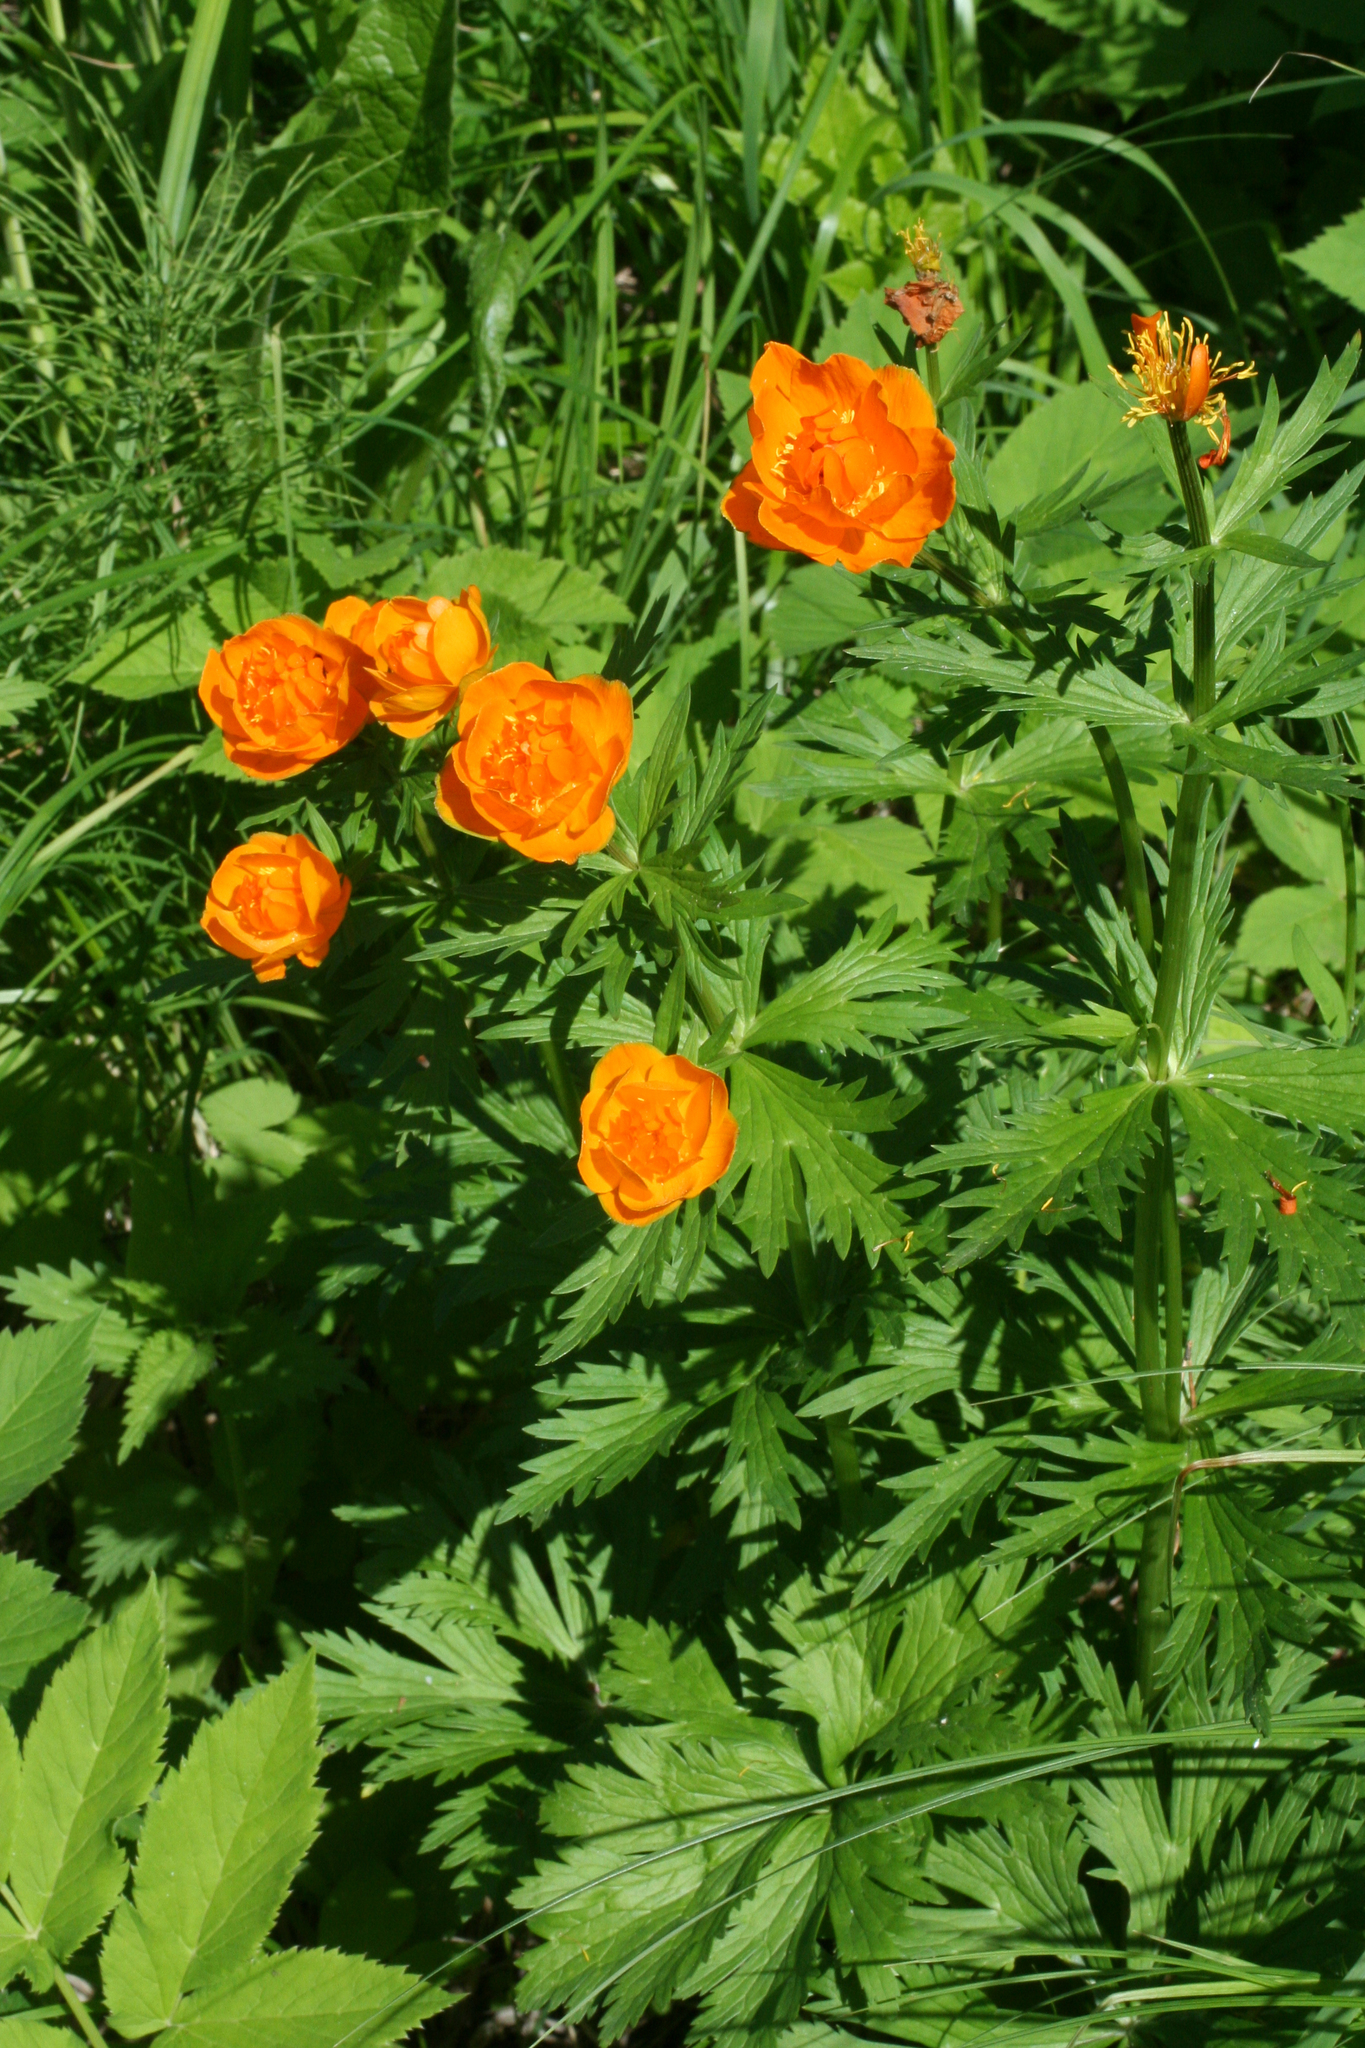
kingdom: Plantae
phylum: Tracheophyta
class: Magnoliopsida
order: Ranunculales
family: Ranunculaceae
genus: Trollius
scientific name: Trollius asiaticus
